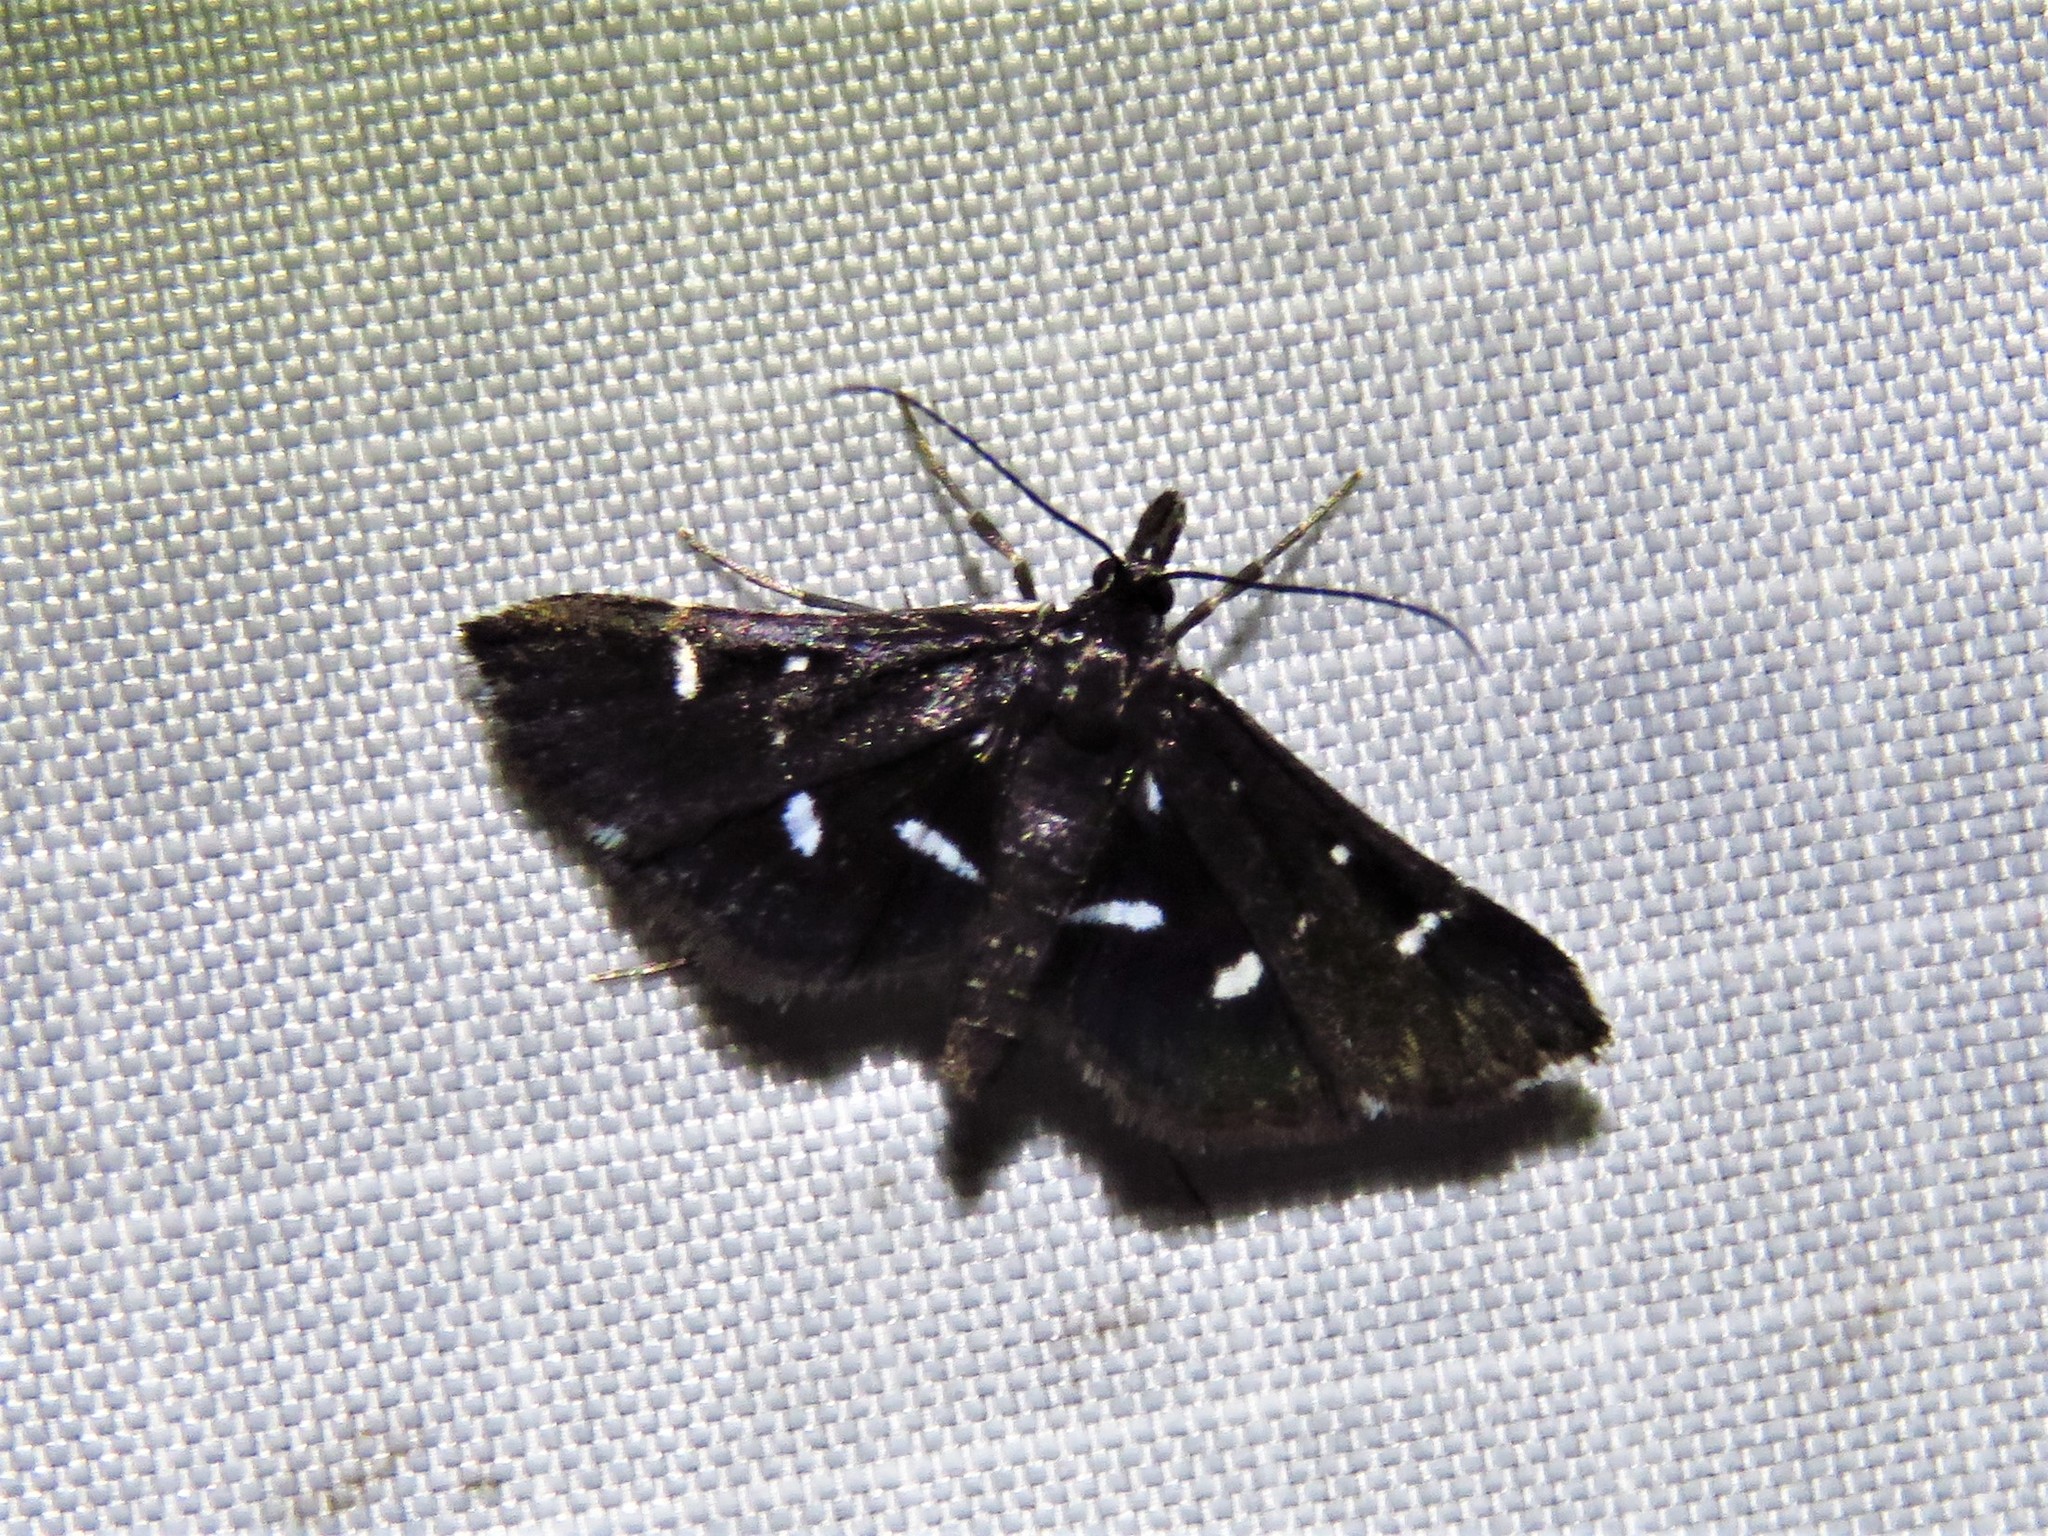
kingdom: Animalia
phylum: Arthropoda
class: Insecta
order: Lepidoptera
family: Crambidae
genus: Diasemiodes
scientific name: Diasemiodes nigralis
